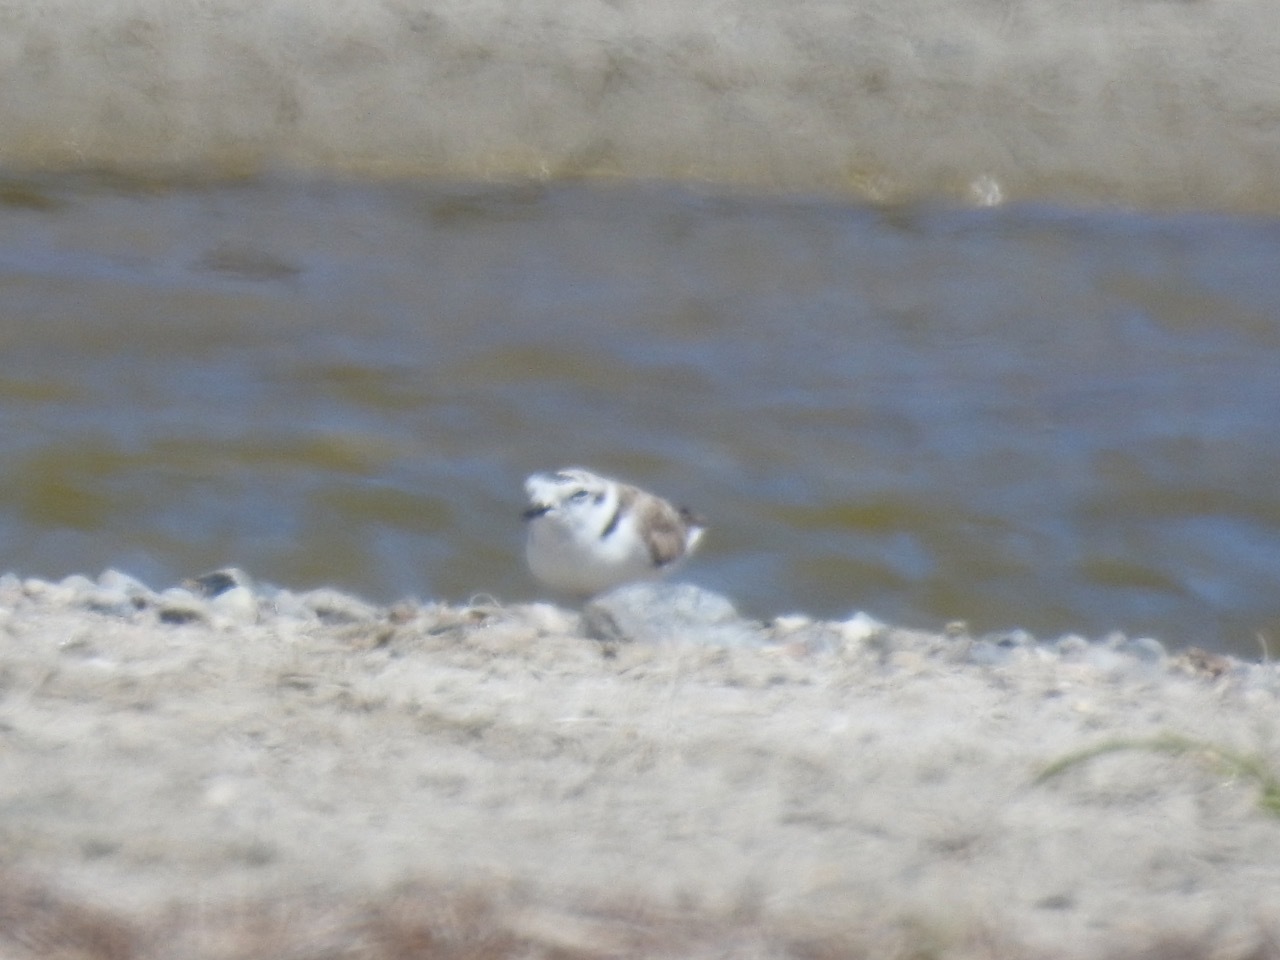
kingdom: Animalia
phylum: Chordata
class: Aves
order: Charadriiformes
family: Charadriidae
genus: Anarhynchus
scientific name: Anarhynchus
